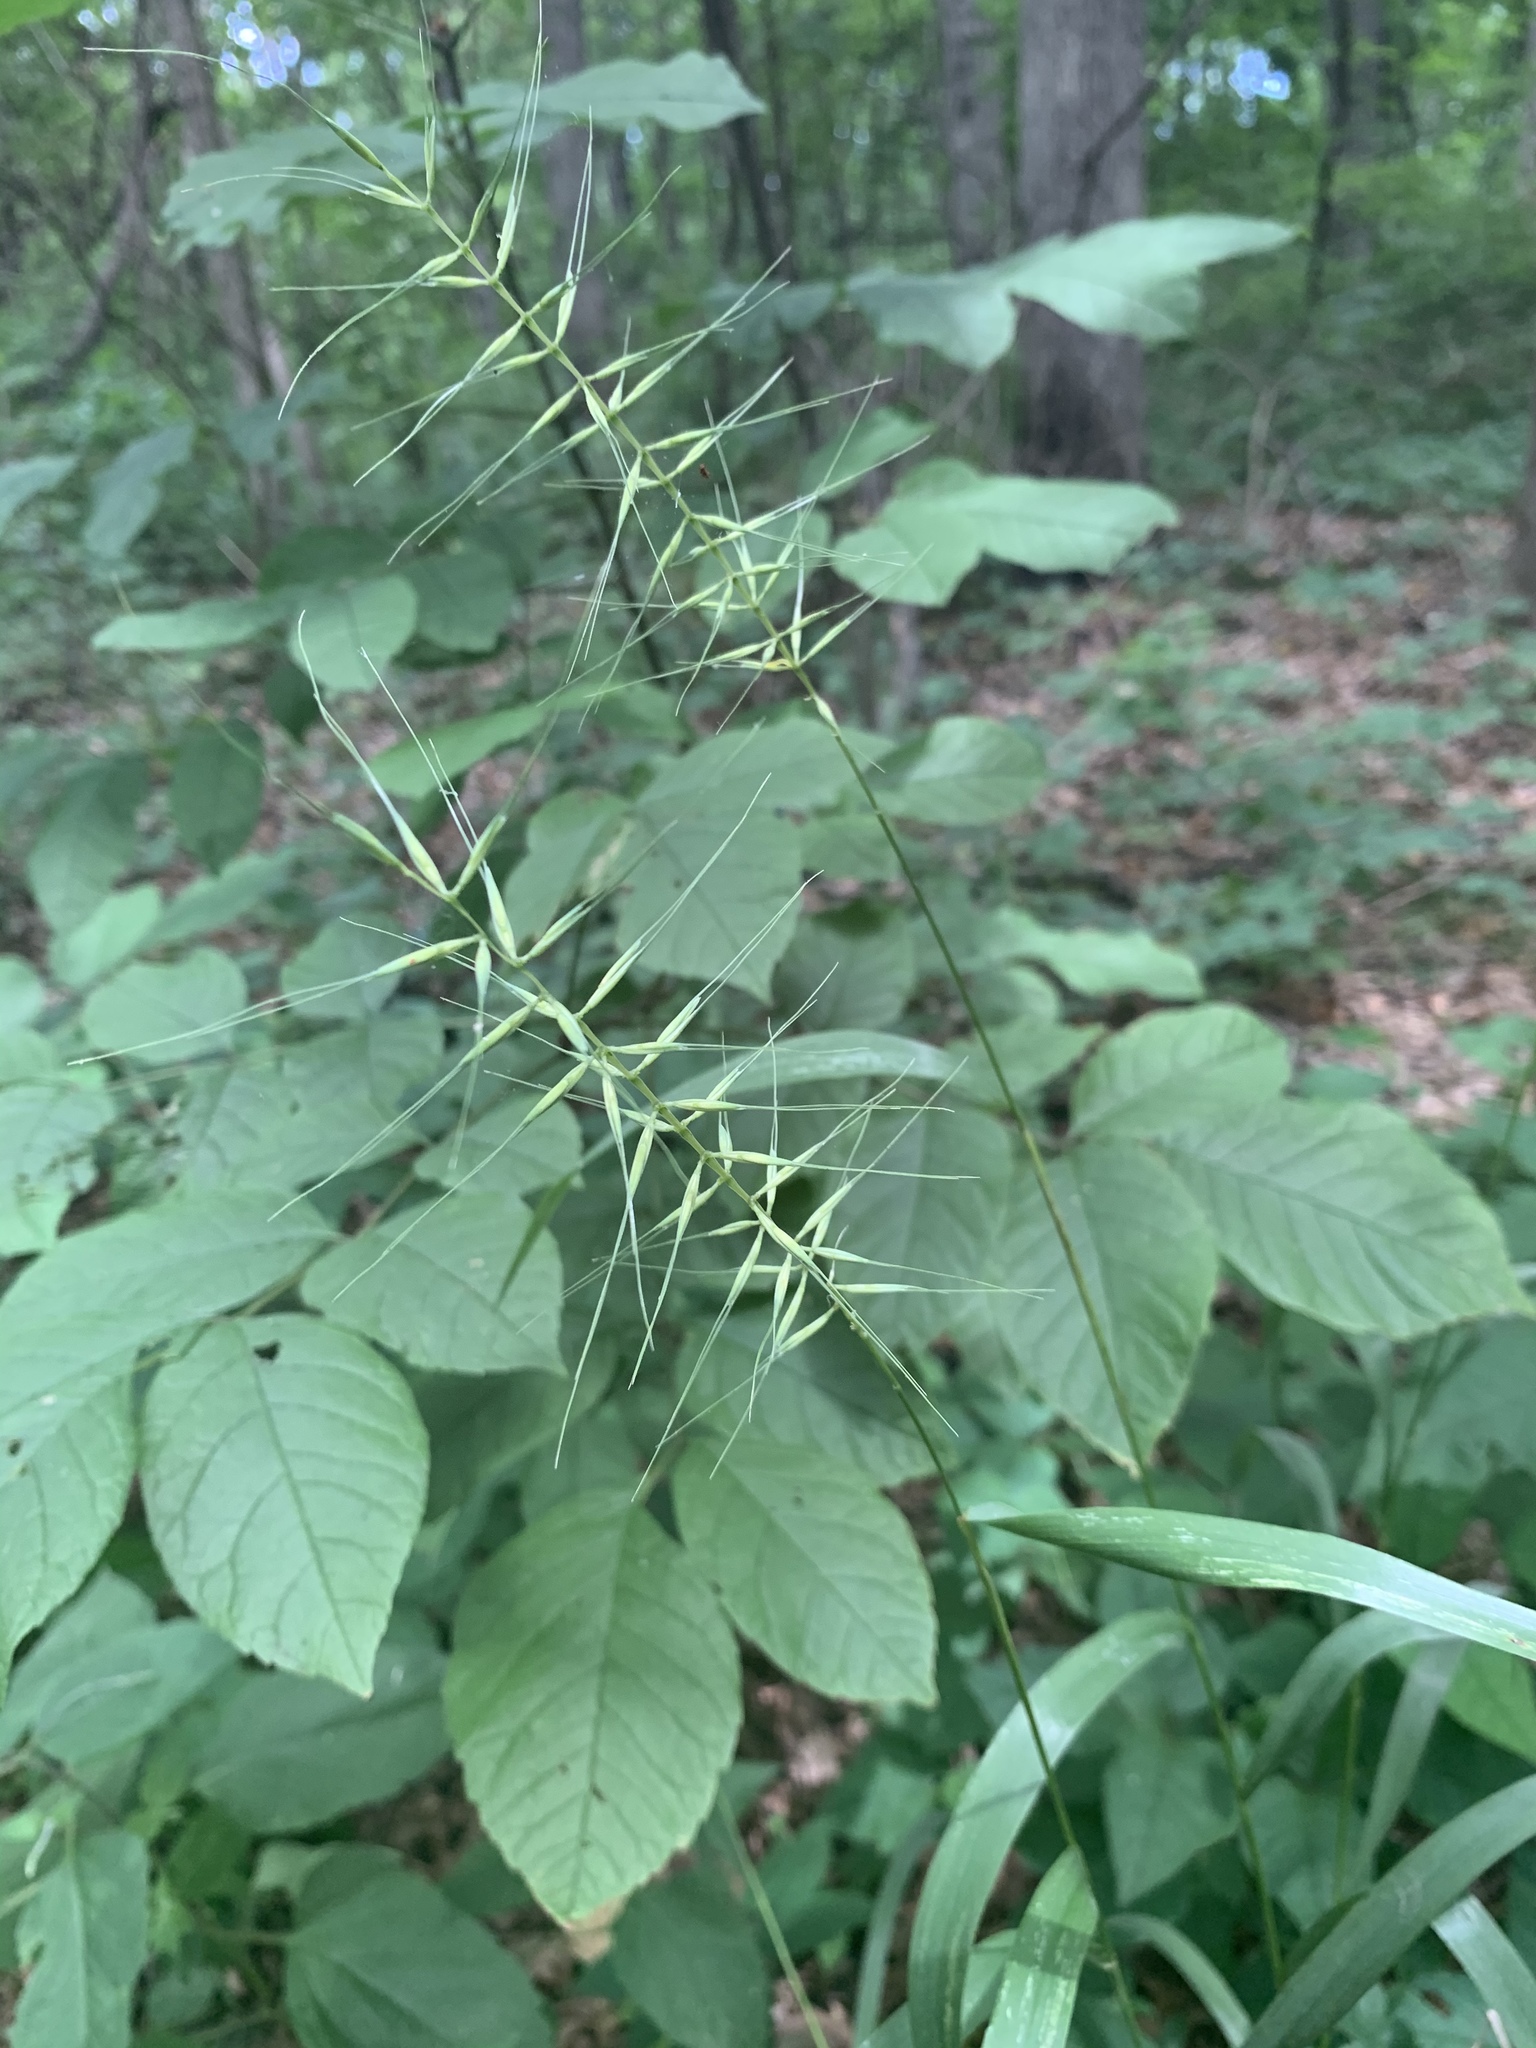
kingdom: Plantae
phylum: Tracheophyta
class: Liliopsida
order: Poales
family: Poaceae
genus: Elymus
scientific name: Elymus hystrix
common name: Bottlebrush grass
